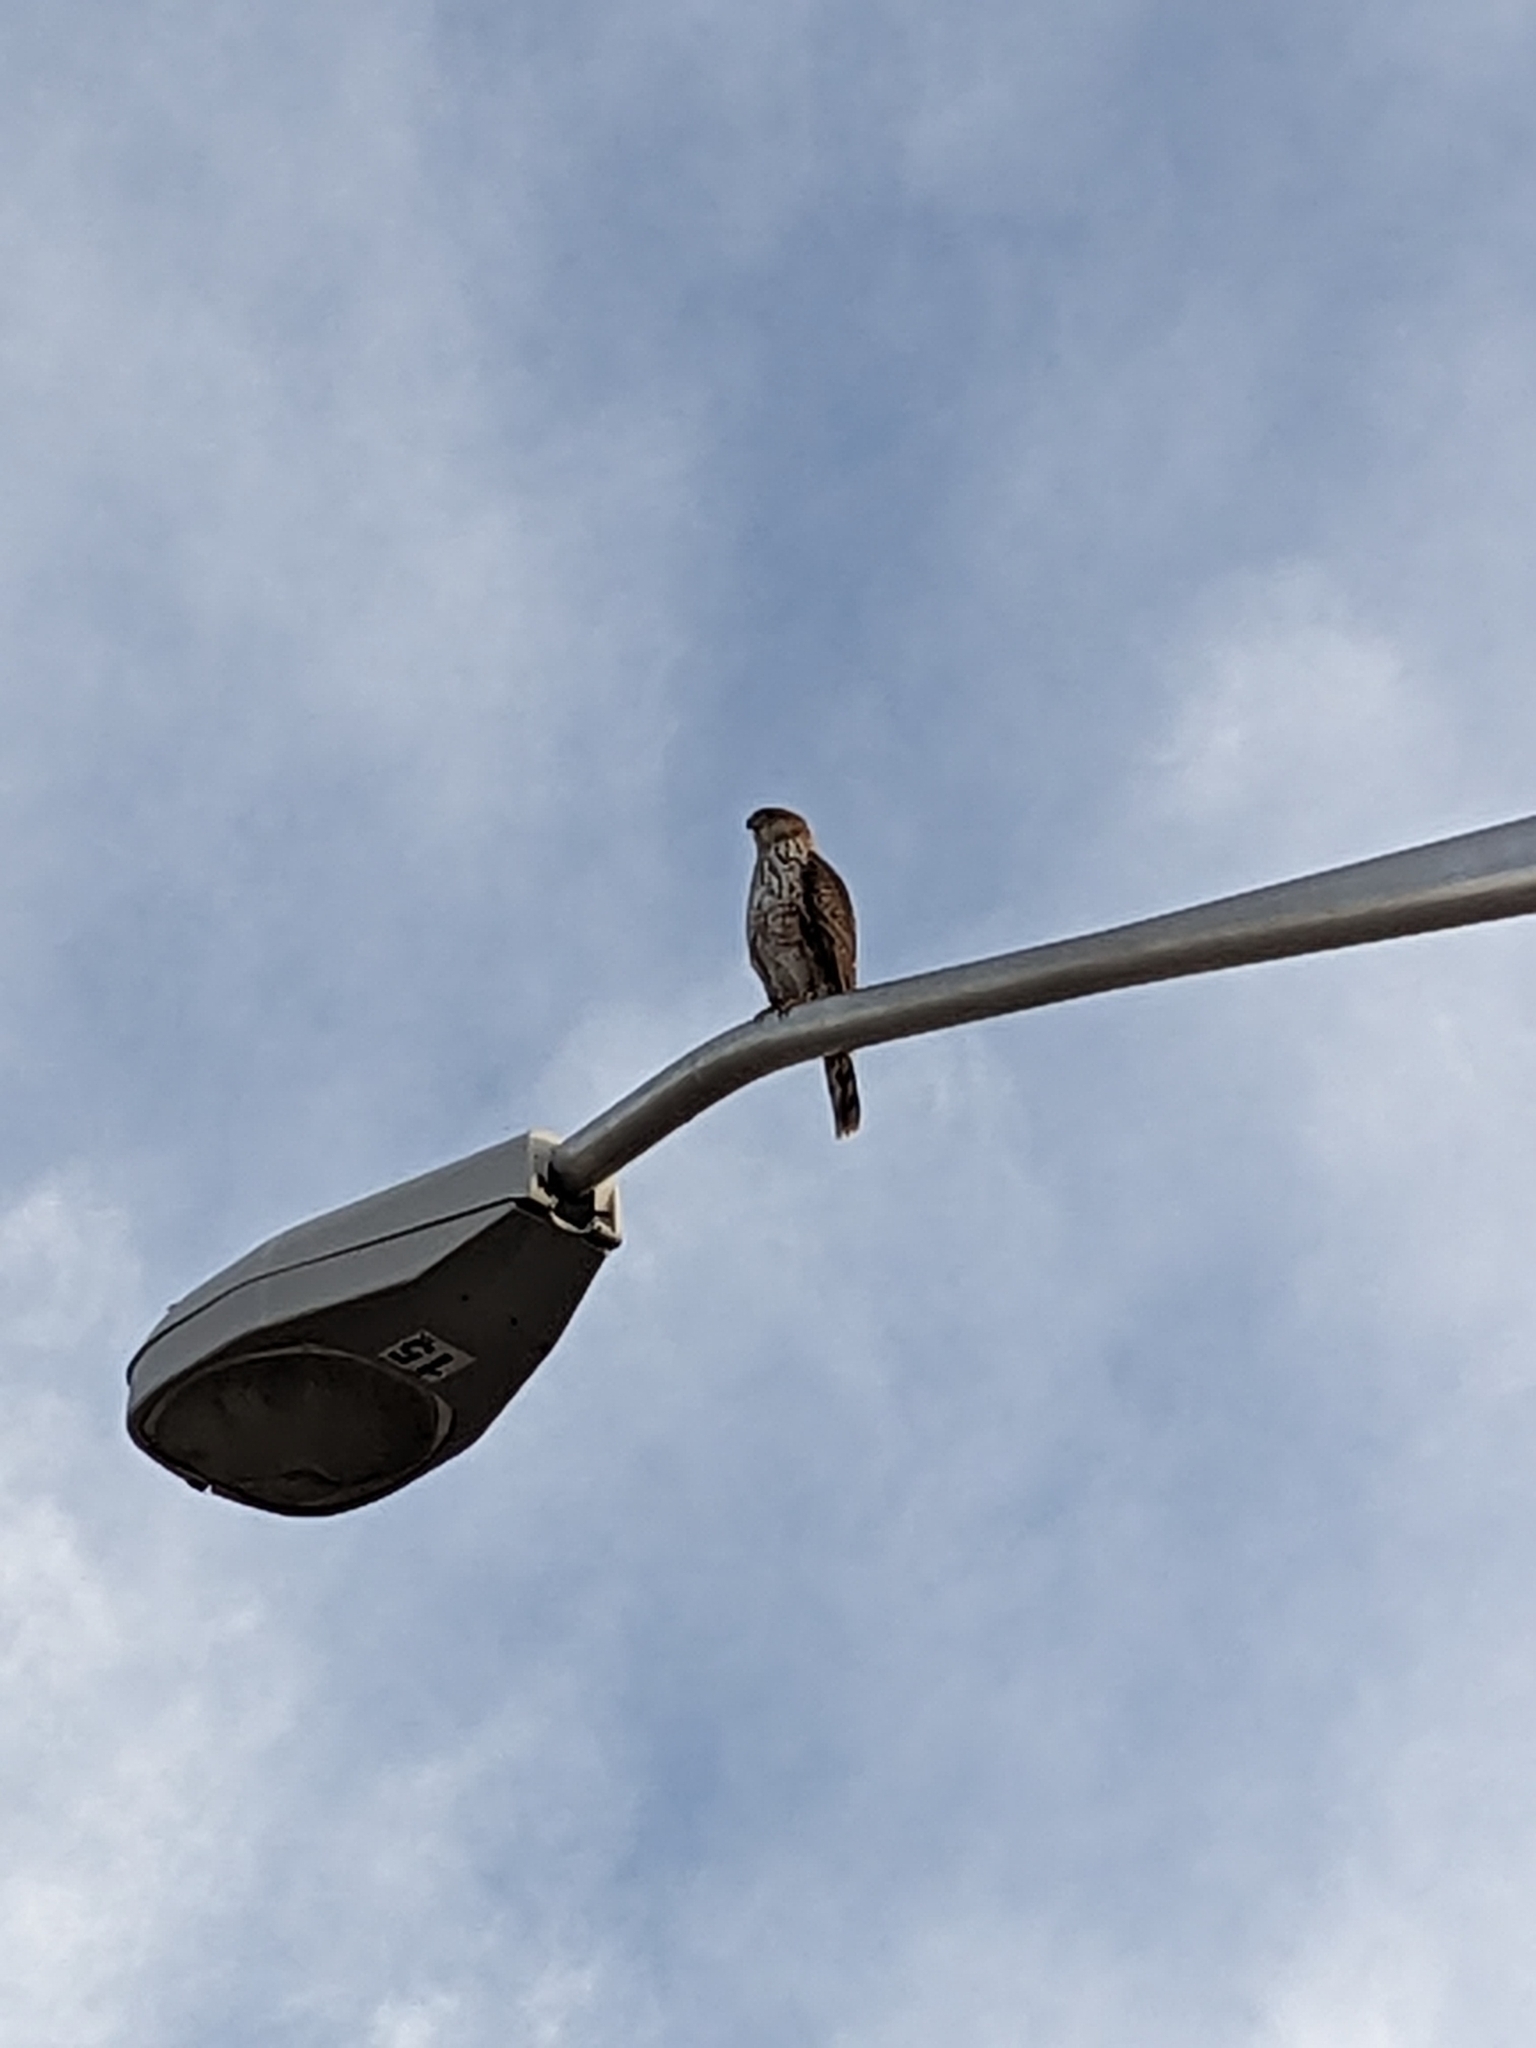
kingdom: Animalia
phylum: Chordata
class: Aves
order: Accipitriformes
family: Accipitridae
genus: Accipiter
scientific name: Accipiter cooperii
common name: Cooper's hawk
